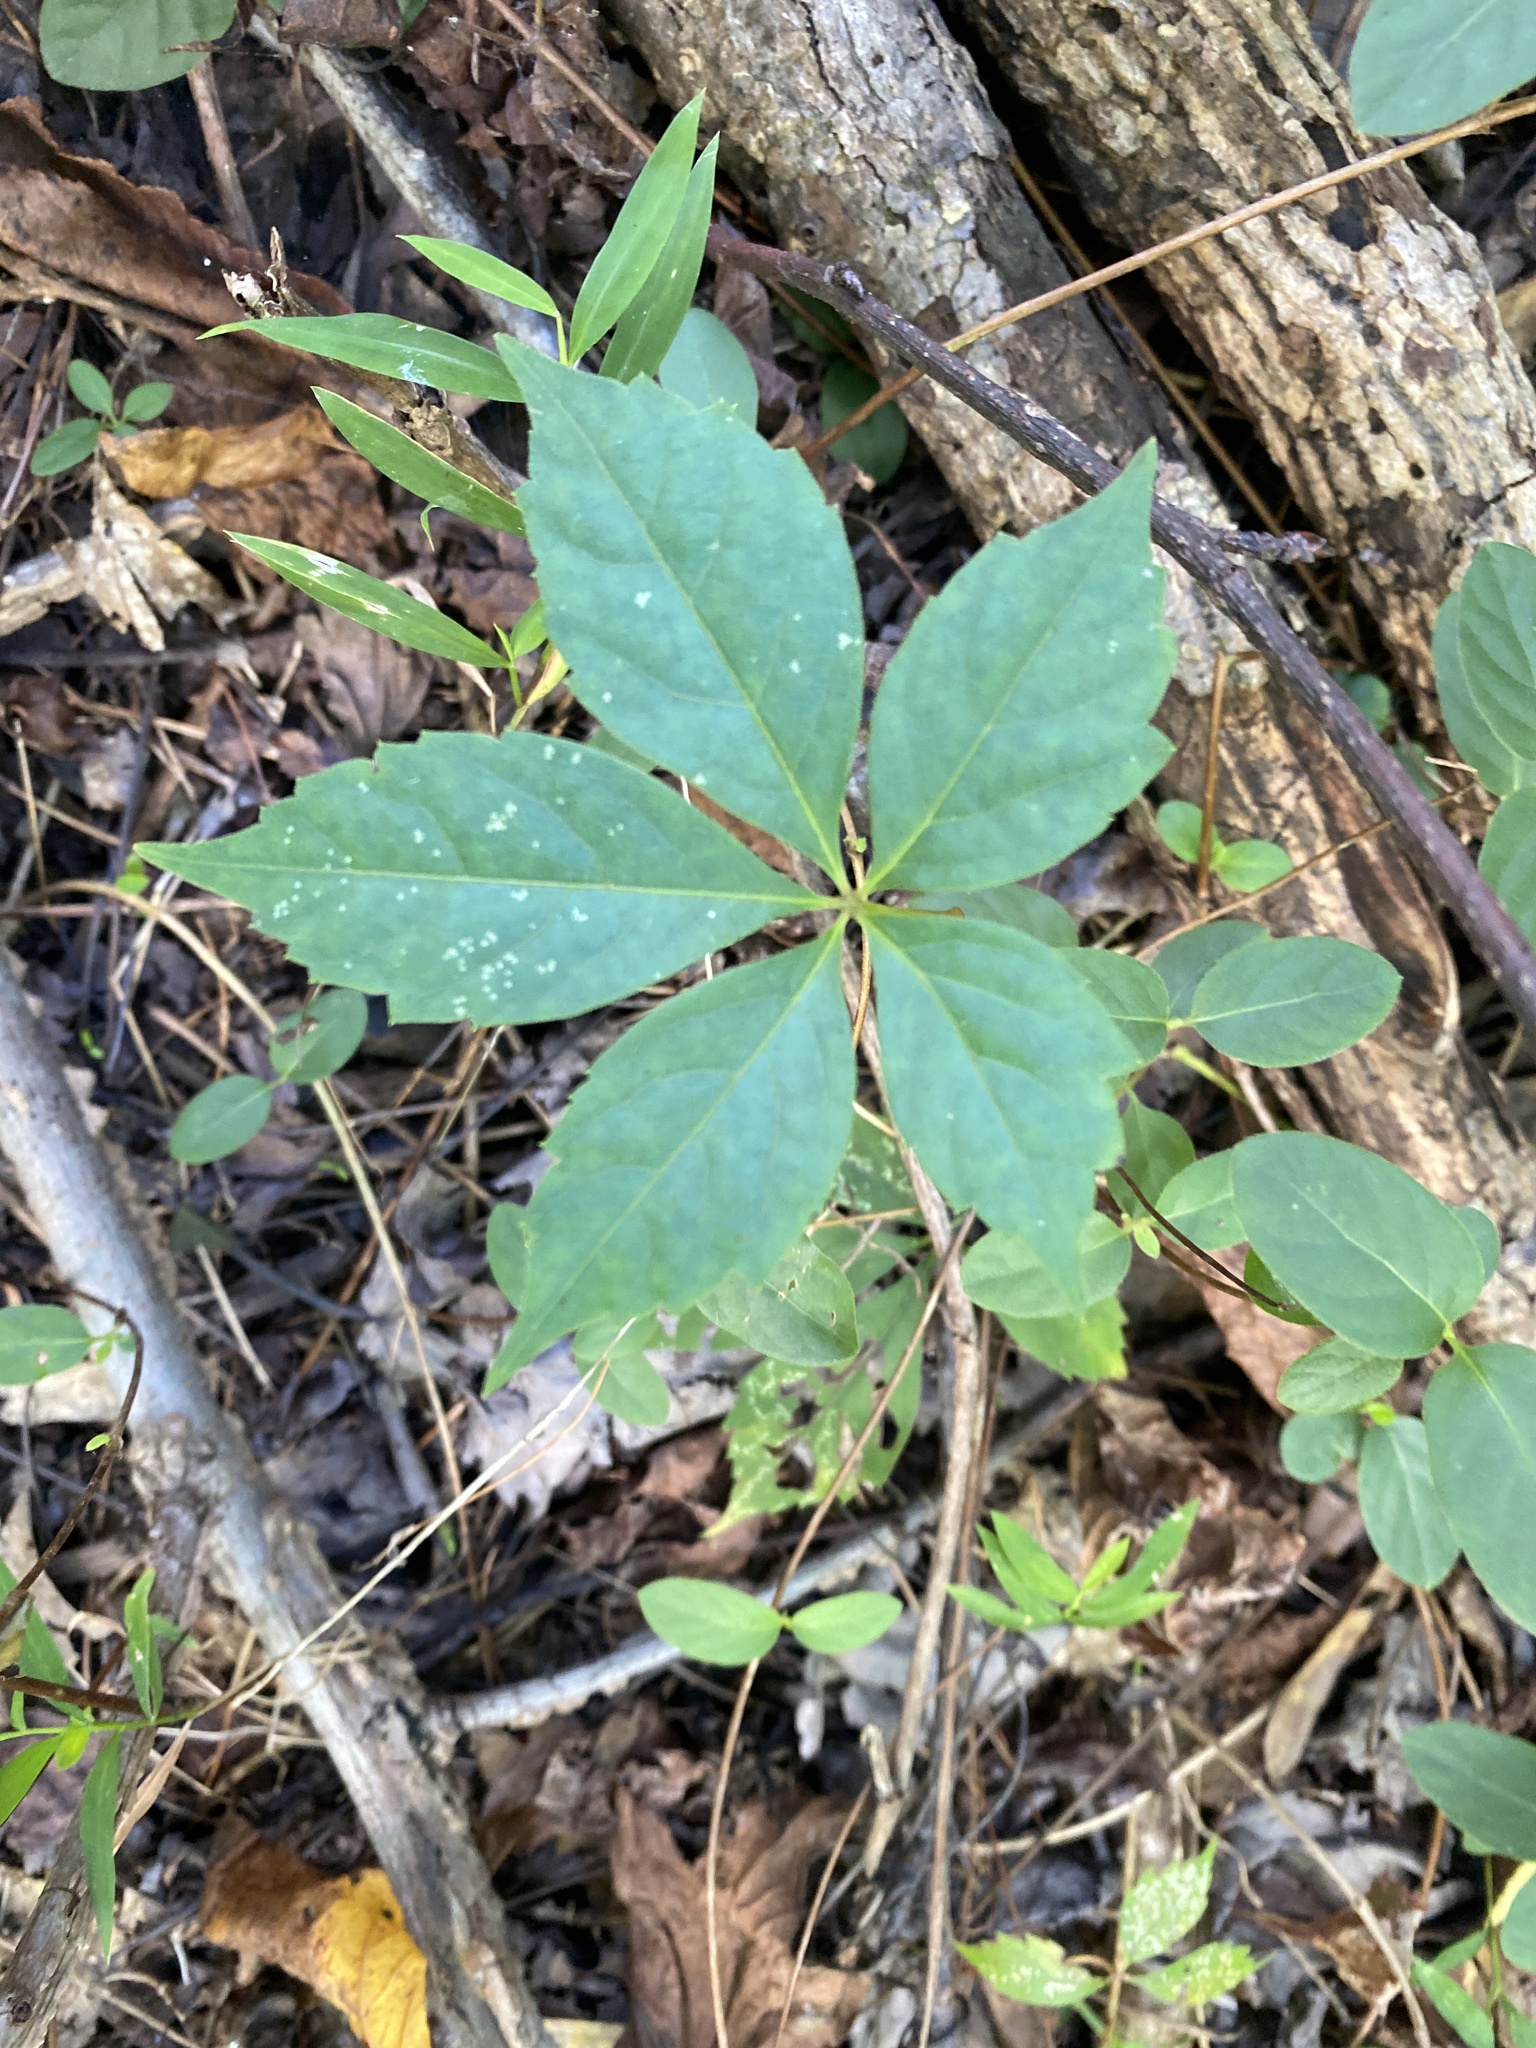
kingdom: Plantae
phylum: Tracheophyta
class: Magnoliopsida
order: Vitales
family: Vitaceae
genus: Parthenocissus
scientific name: Parthenocissus quinquefolia
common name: Virginia-creeper
